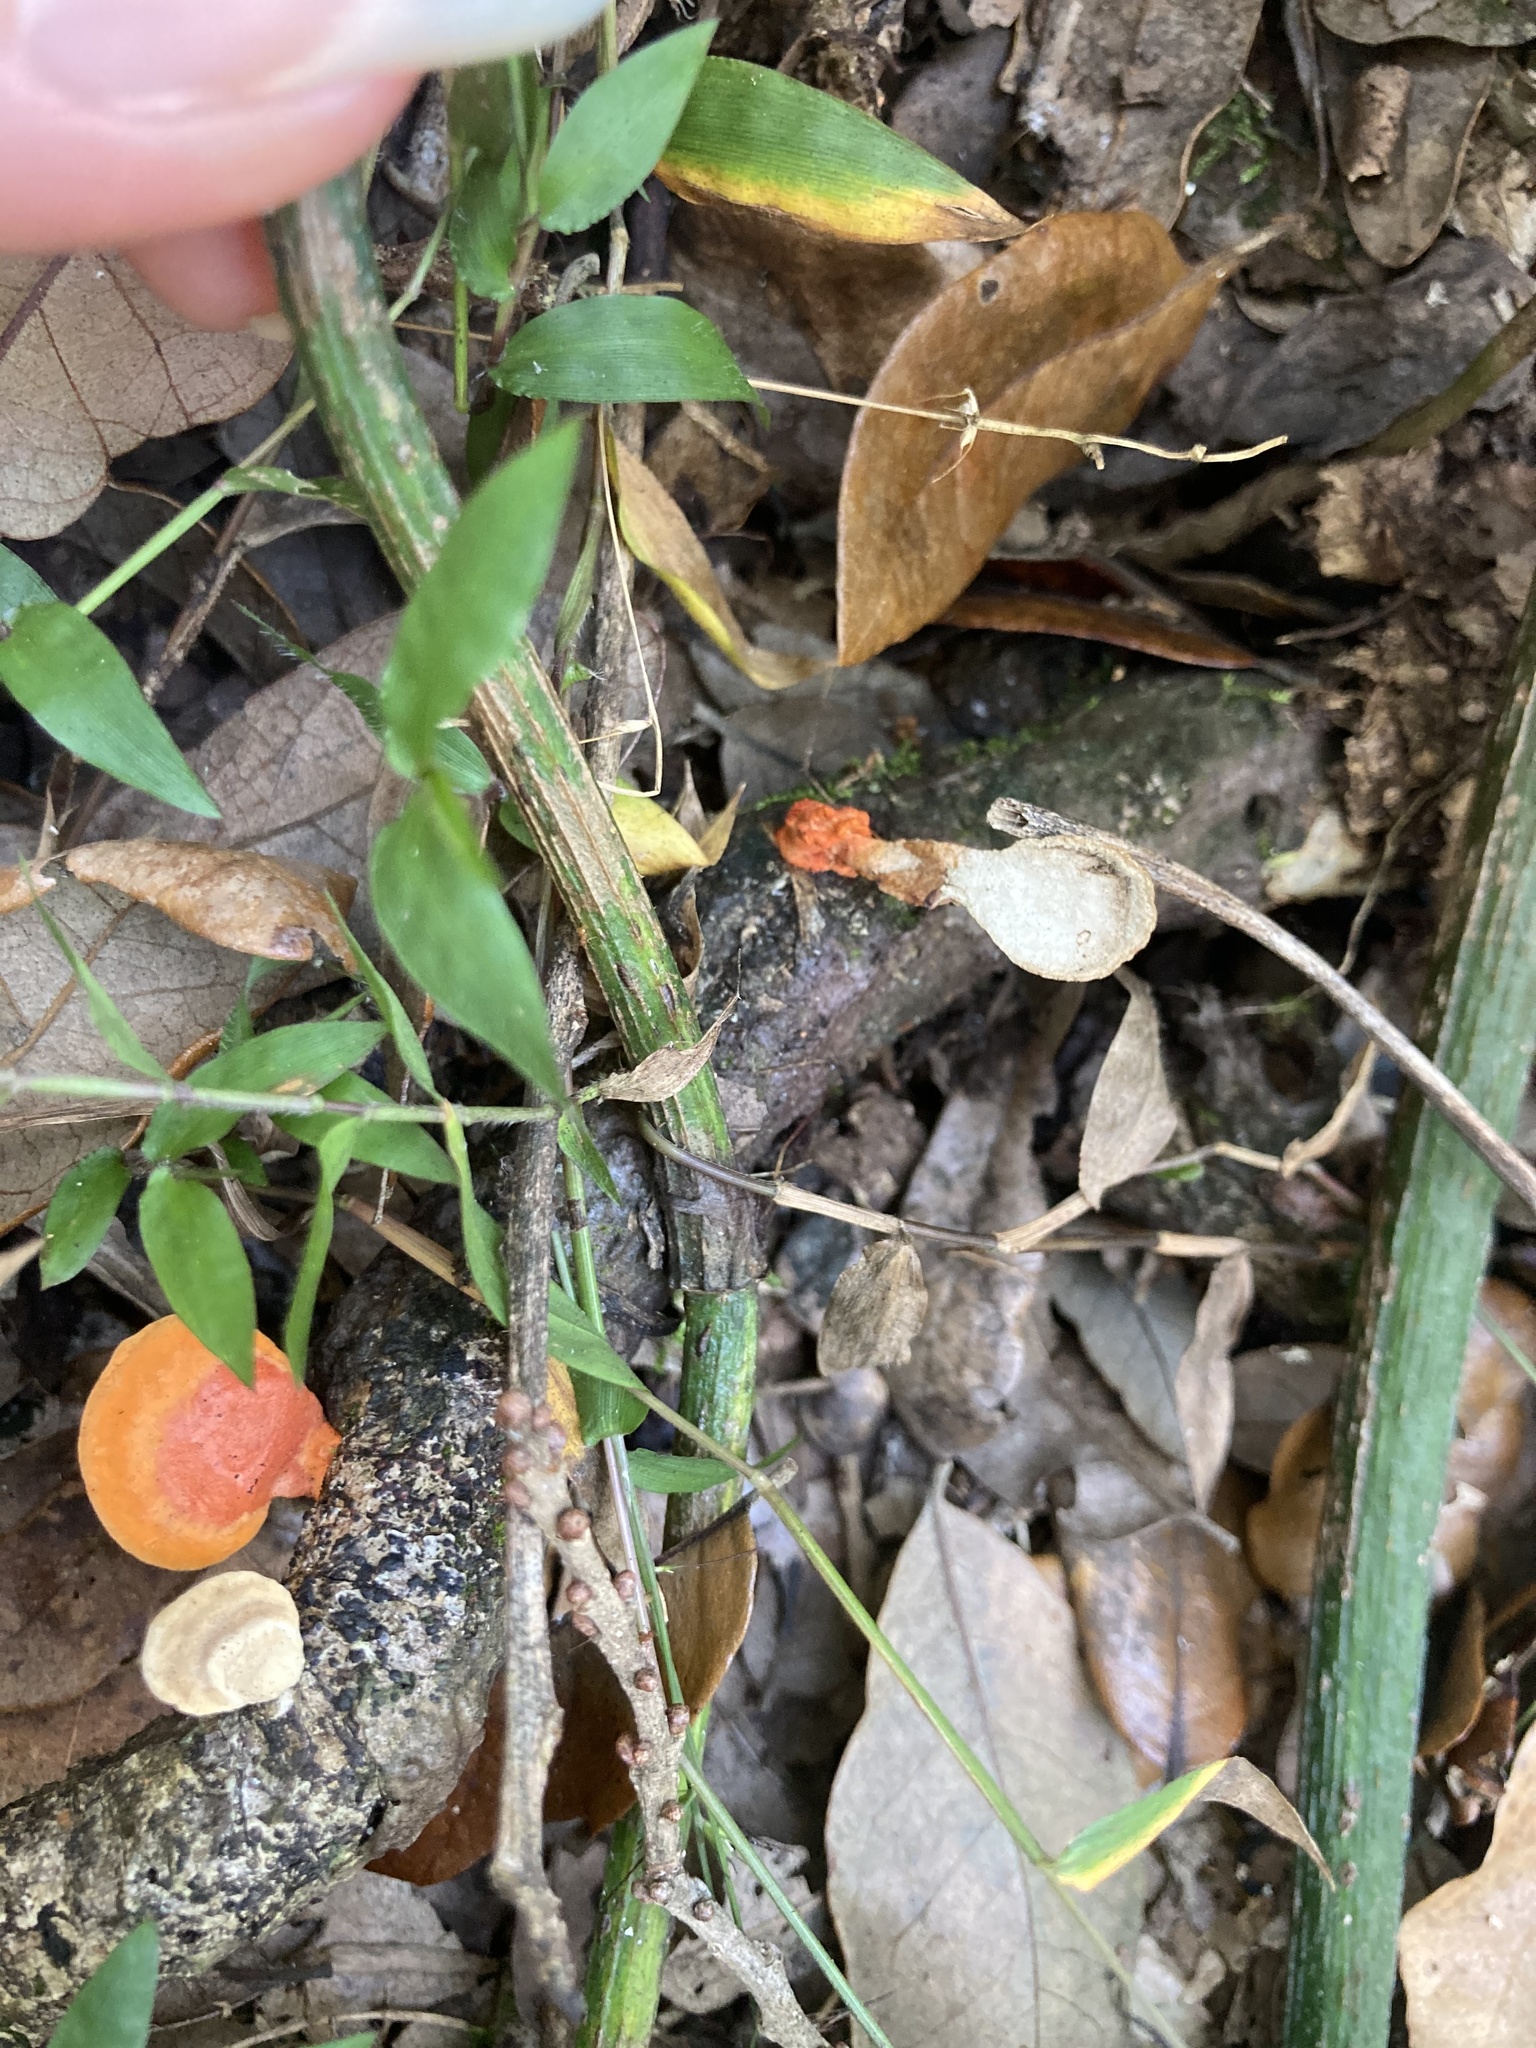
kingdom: Fungi
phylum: Basidiomycota
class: Agaricomycetes
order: Polyporales
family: Polyporaceae
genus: Trametes
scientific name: Trametes cinnabarina
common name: Northern cinnabar polypore
